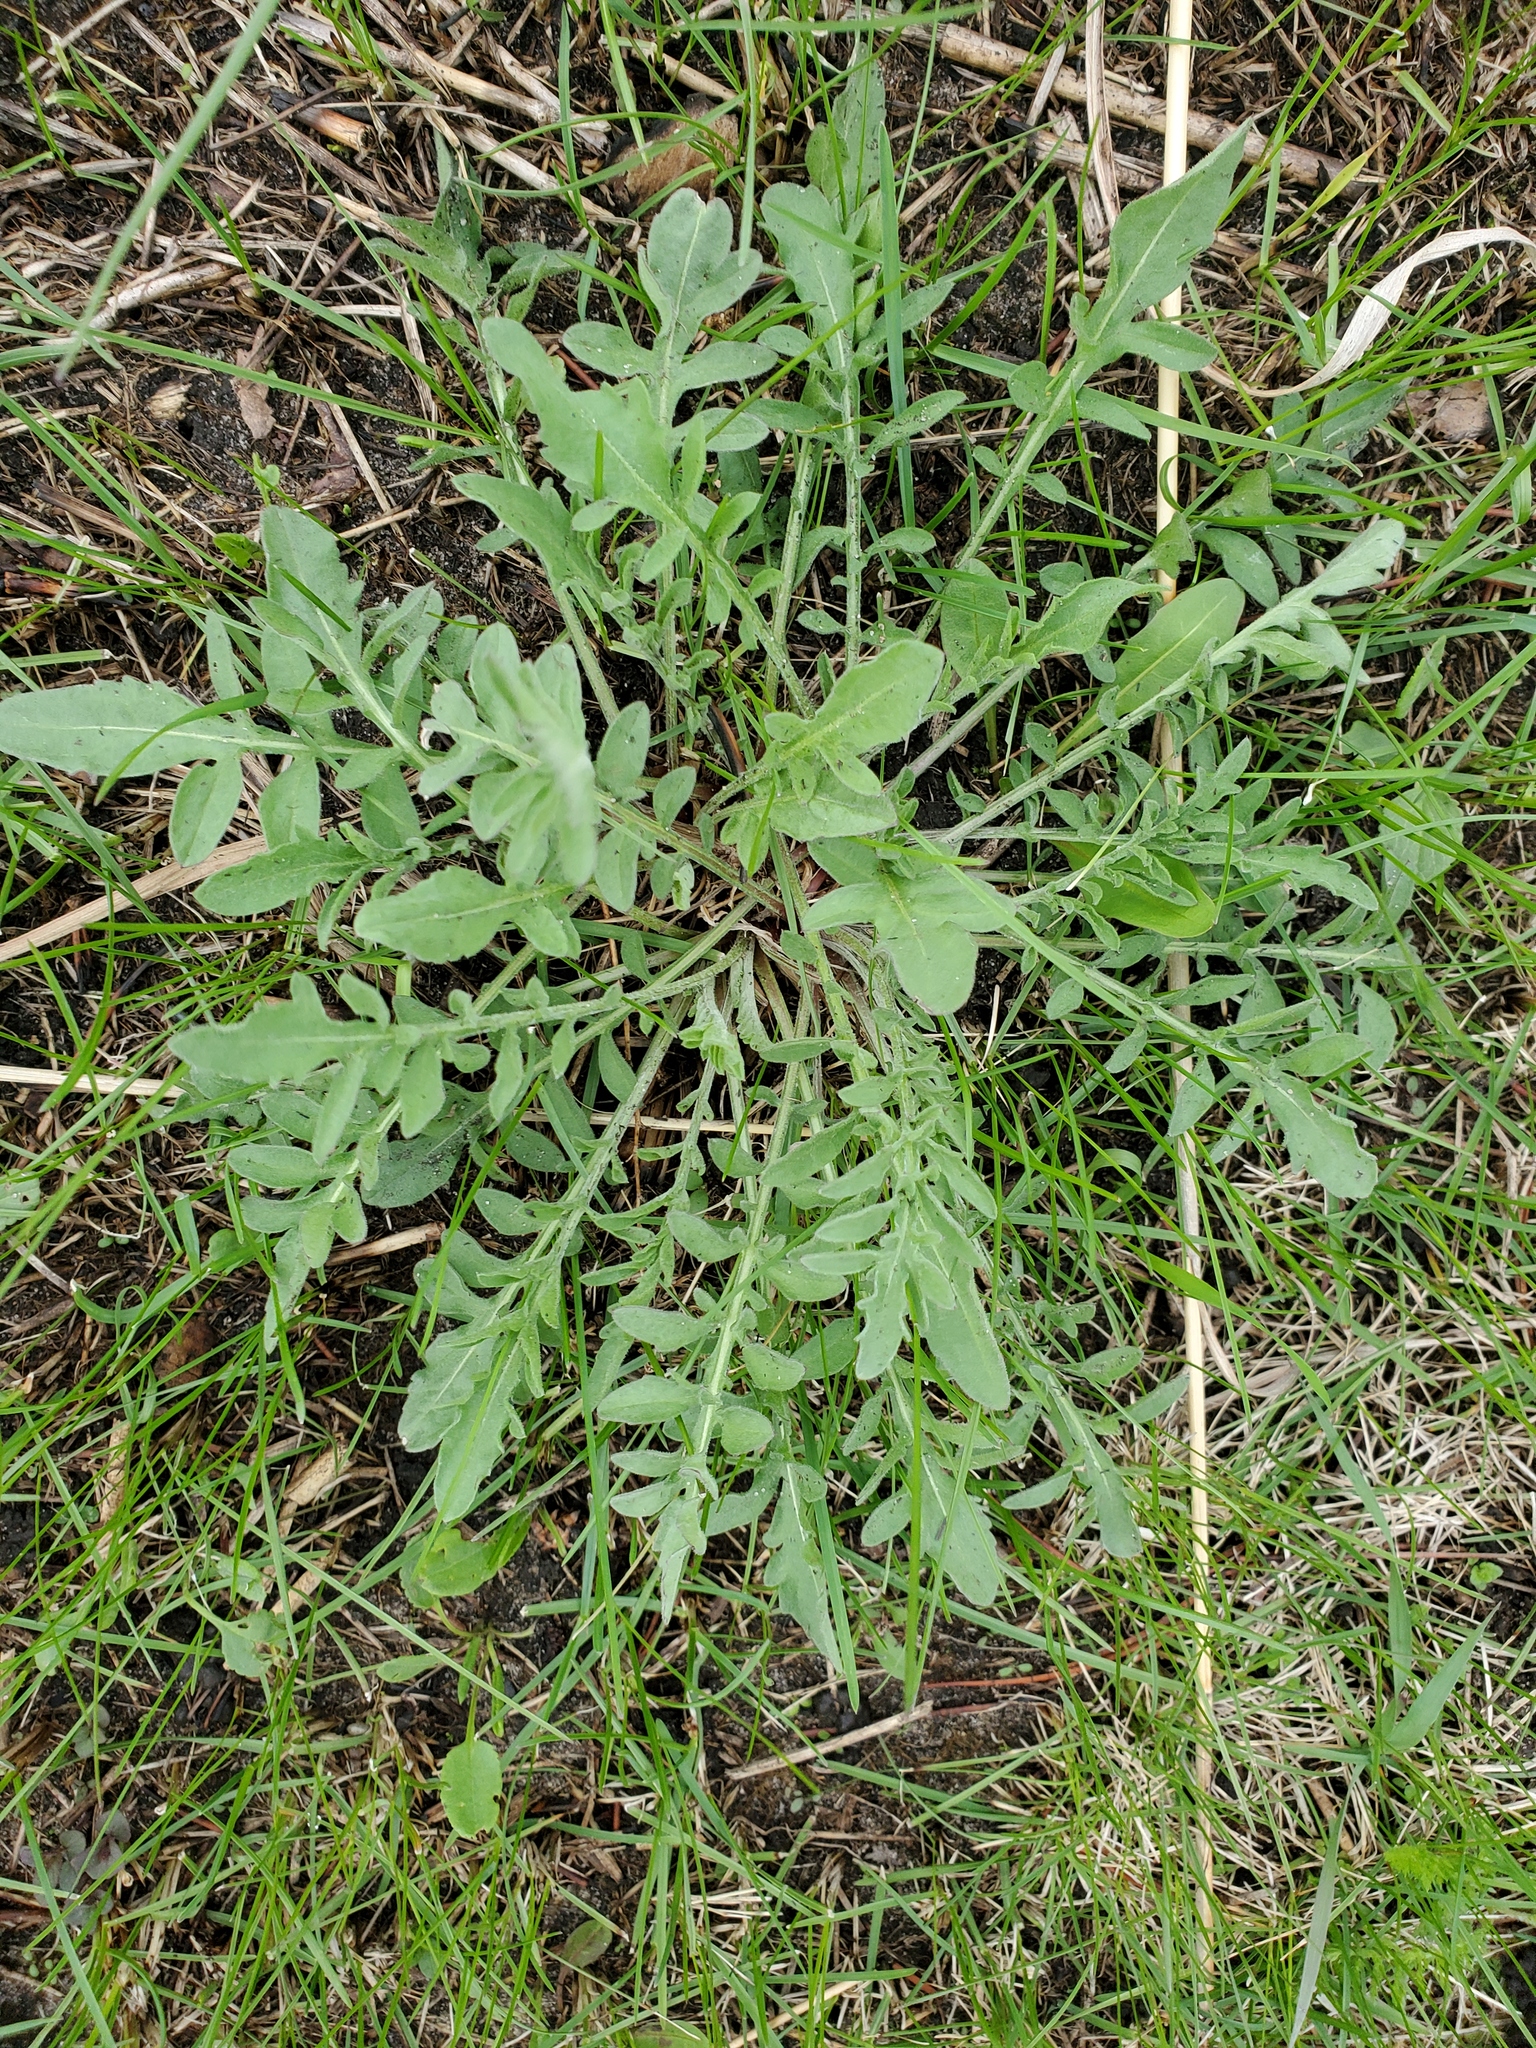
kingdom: Plantae
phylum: Tracheophyta
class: Magnoliopsida
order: Asterales
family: Asteraceae
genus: Centaurea
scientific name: Centaurea stoebe
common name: Spotted knapweed
